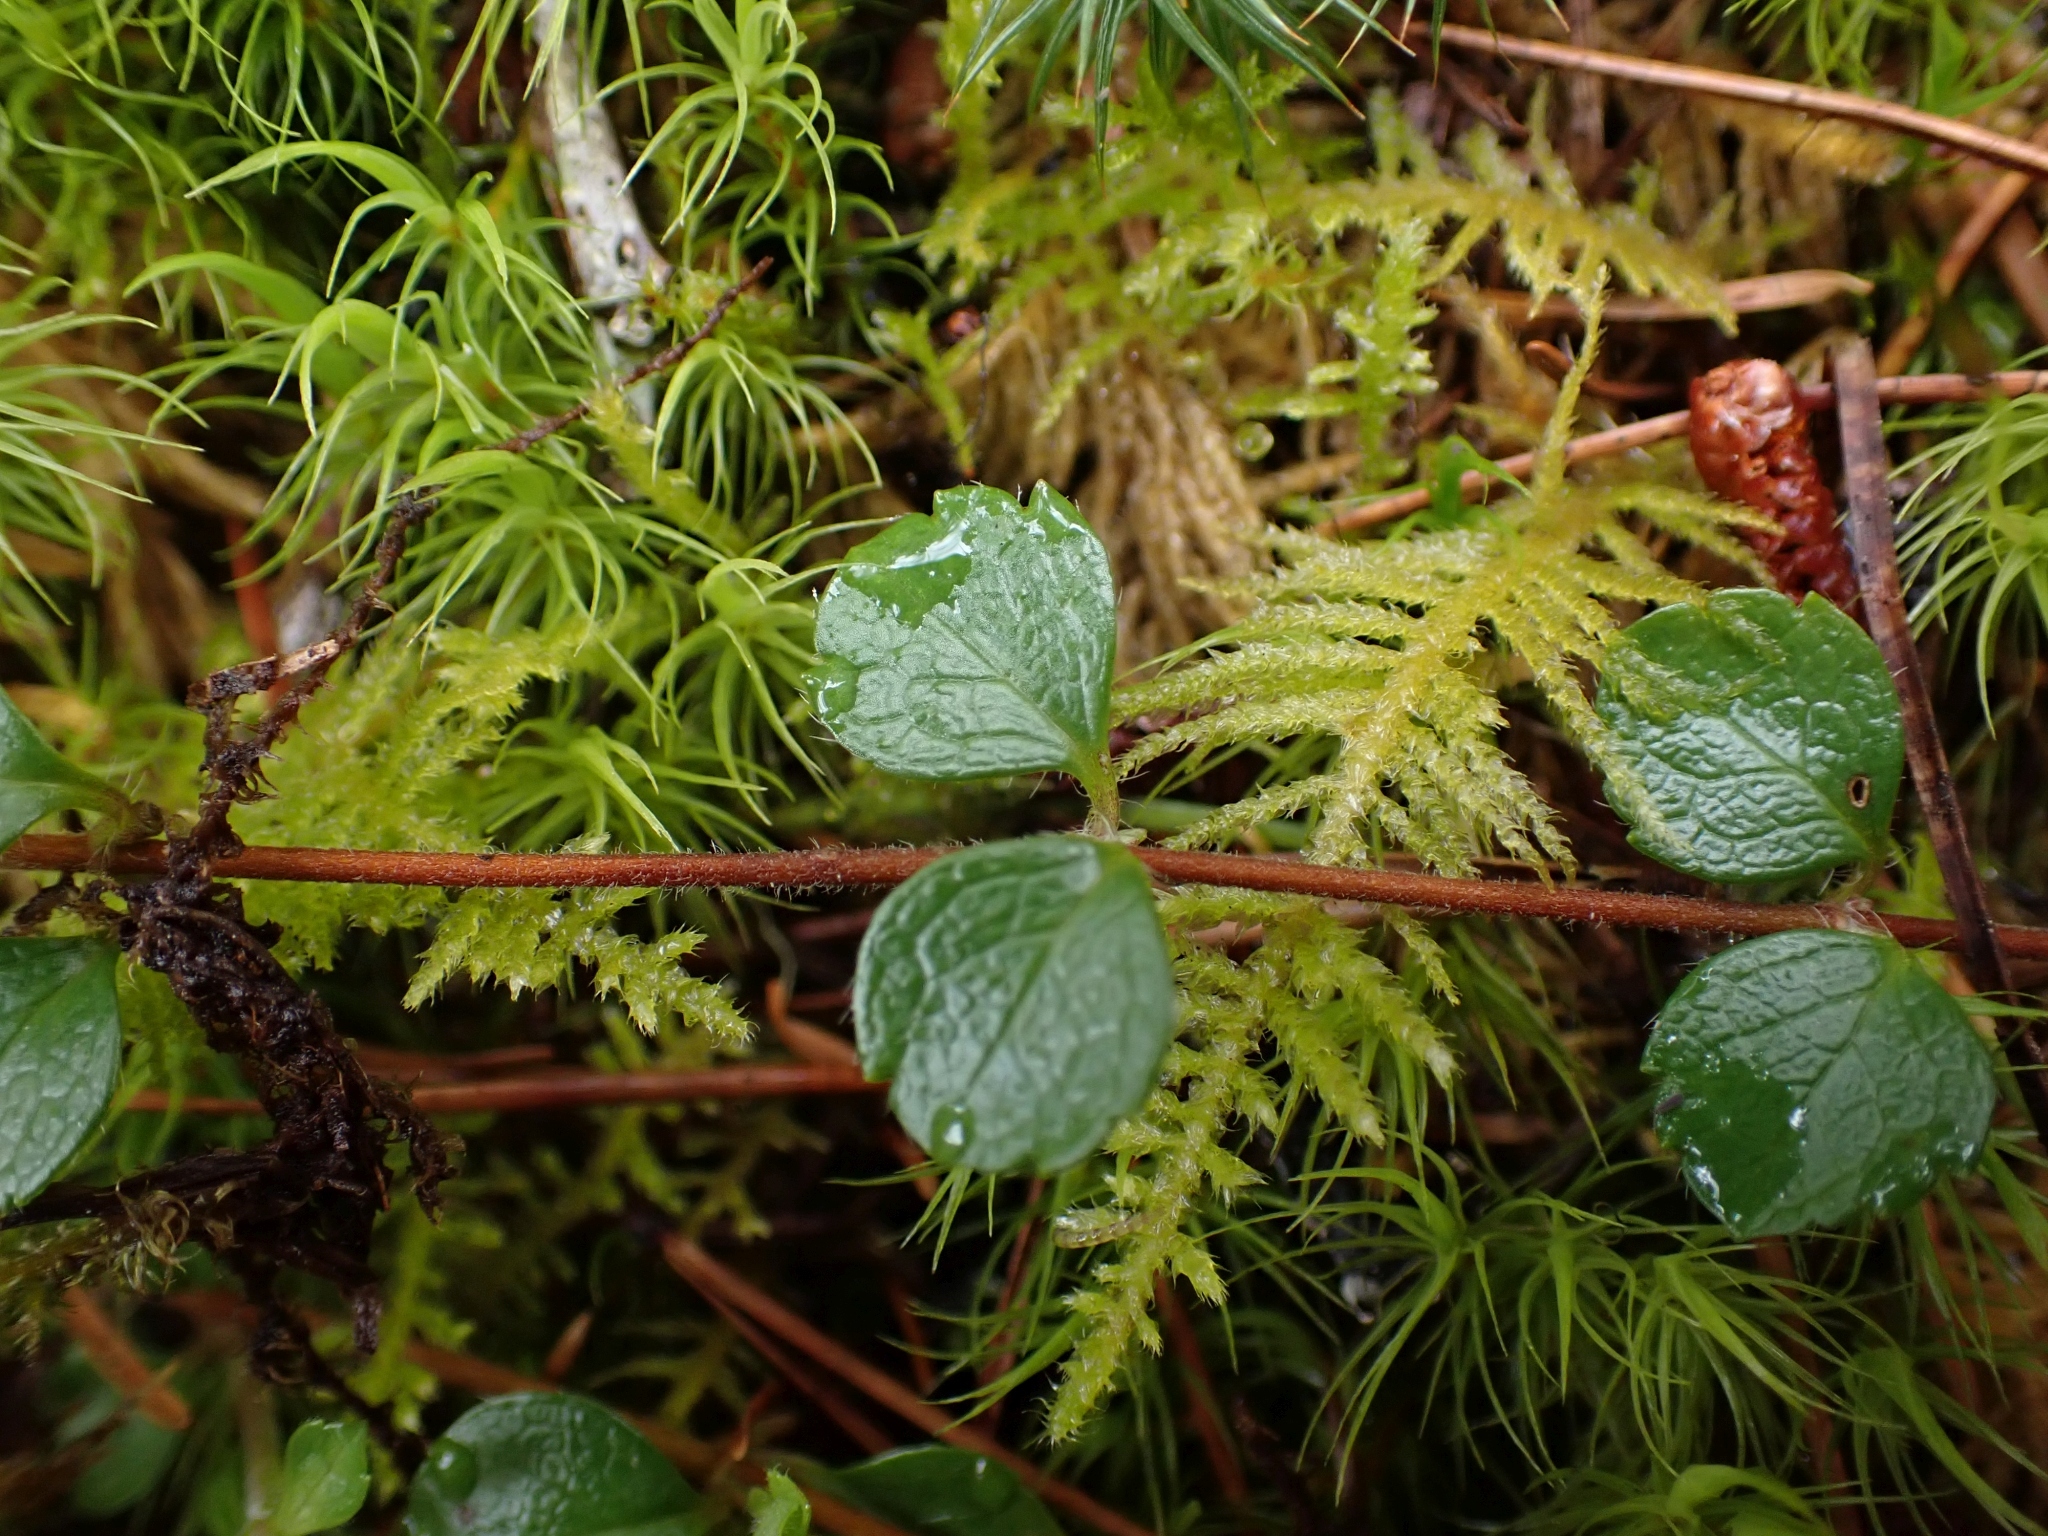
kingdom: Plantae
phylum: Tracheophyta
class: Magnoliopsida
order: Dipsacales
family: Caprifoliaceae
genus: Linnaea
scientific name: Linnaea borealis
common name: Twinflower
